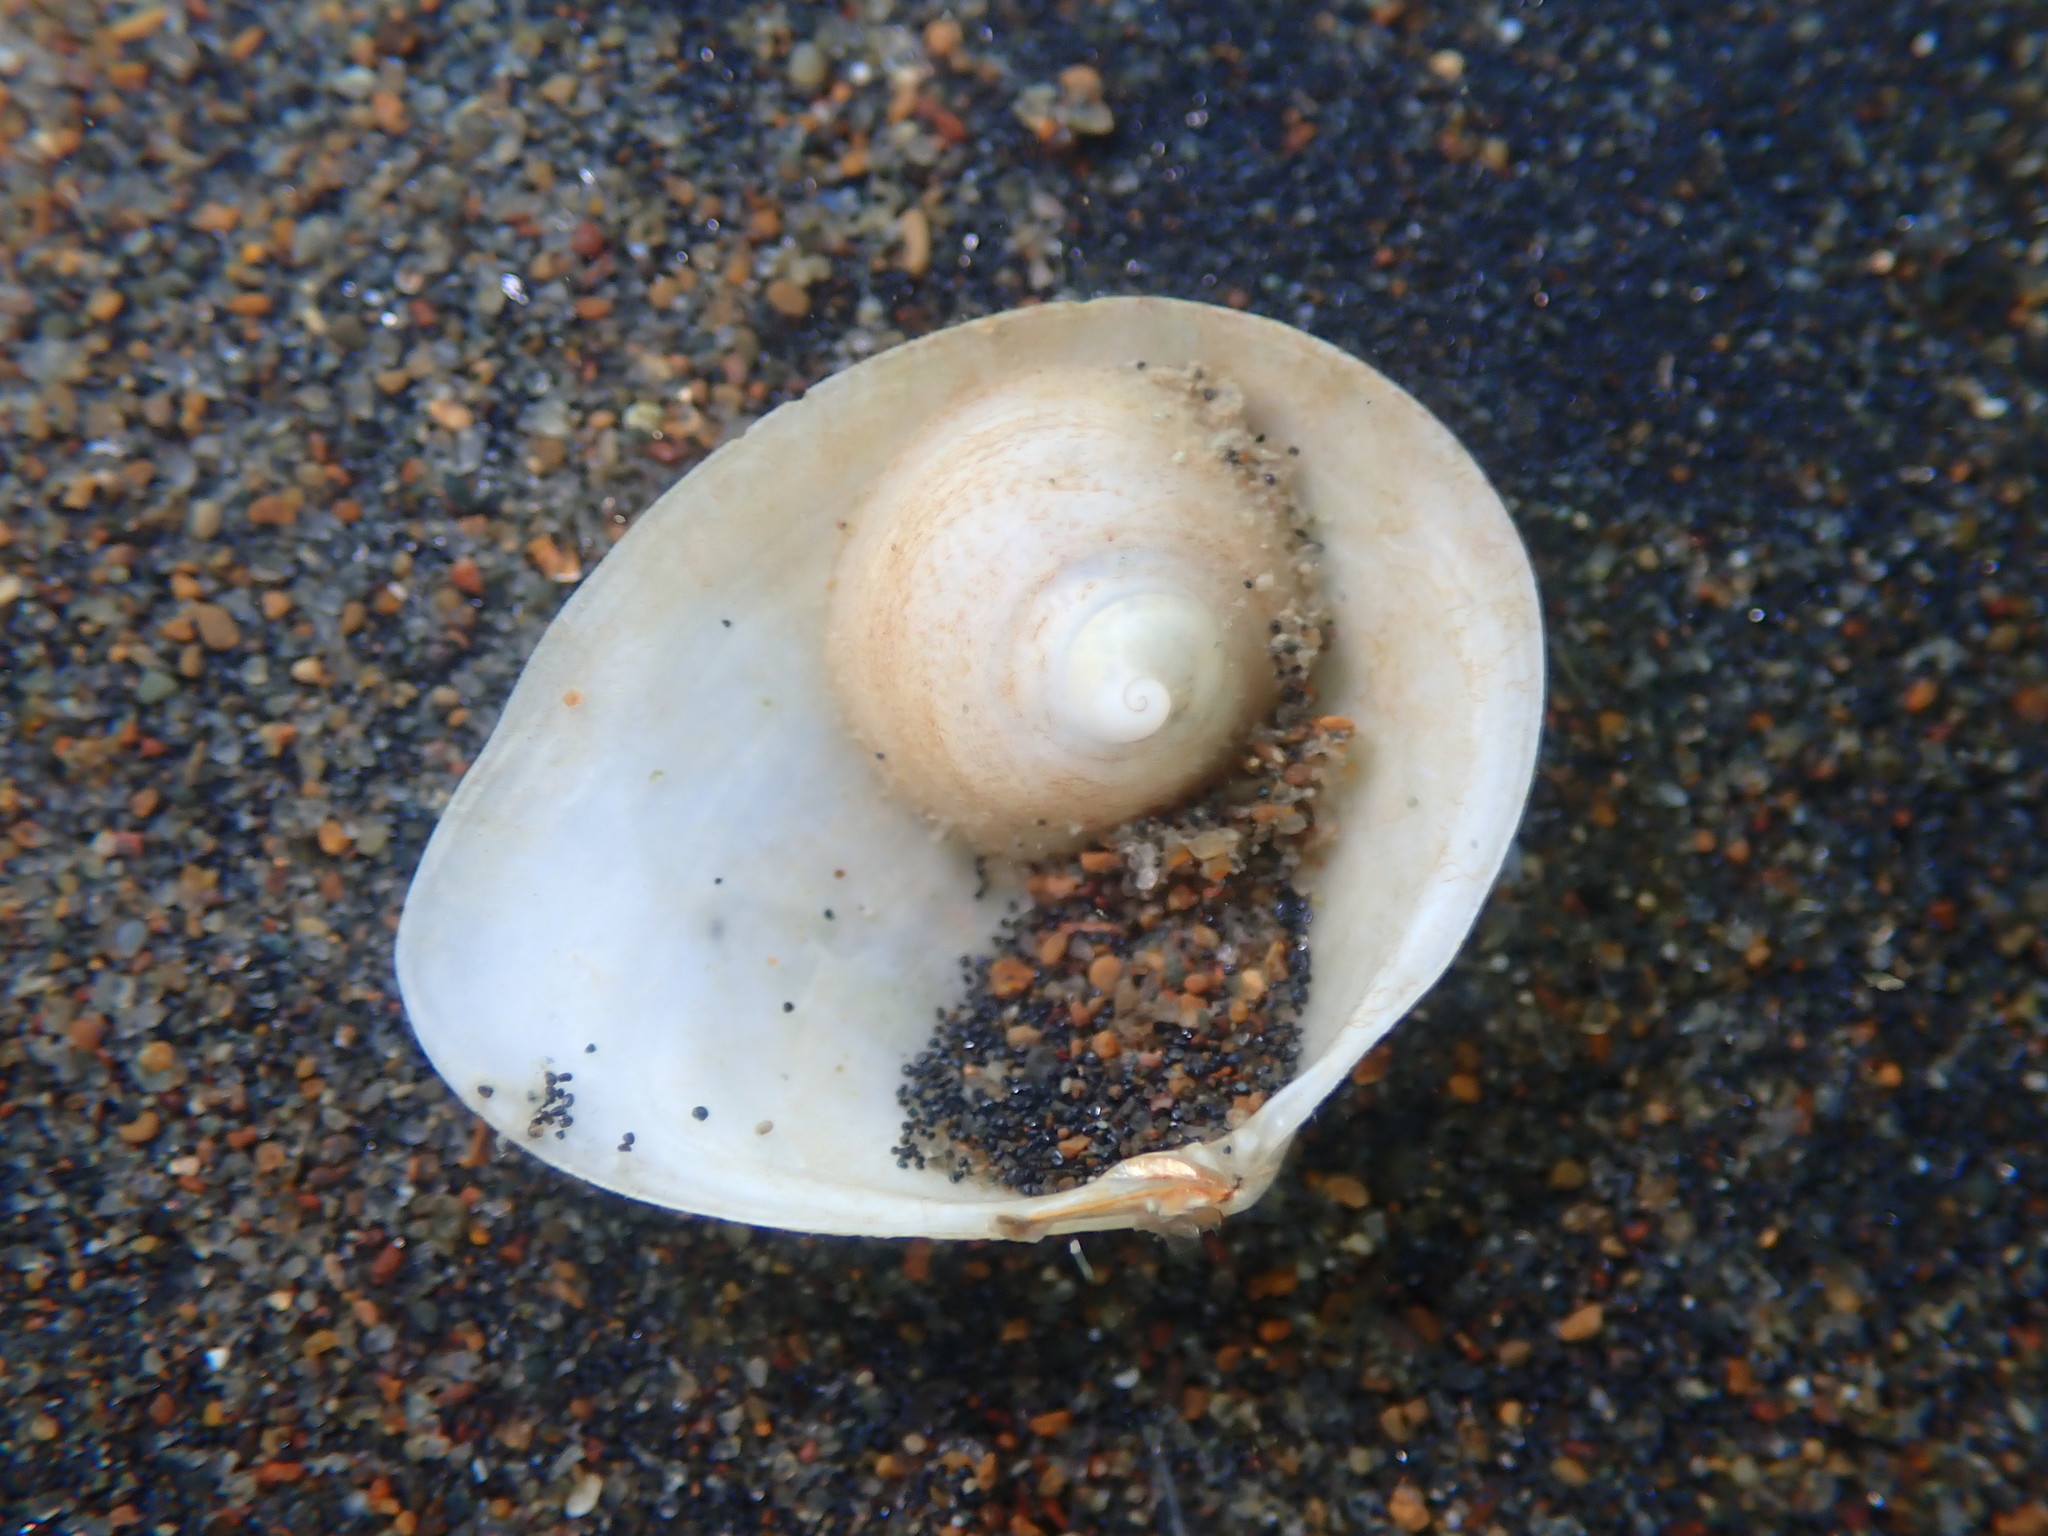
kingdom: Animalia
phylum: Mollusca
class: Bivalvia
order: Cardiida
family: Semelidae
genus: Leptomya
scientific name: Leptomya retiaria
